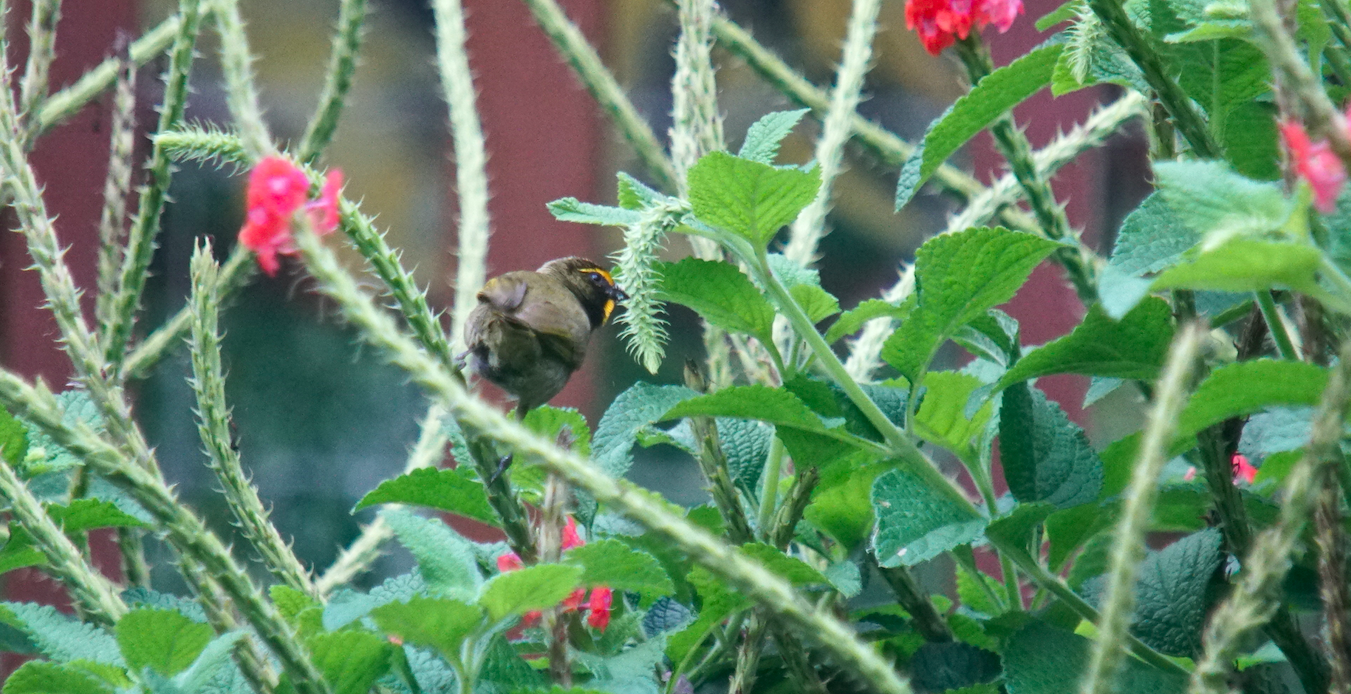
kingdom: Animalia
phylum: Chordata
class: Aves
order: Passeriformes
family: Thraupidae
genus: Tiaris
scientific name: Tiaris olivaceus
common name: Yellow-faced grassquit
